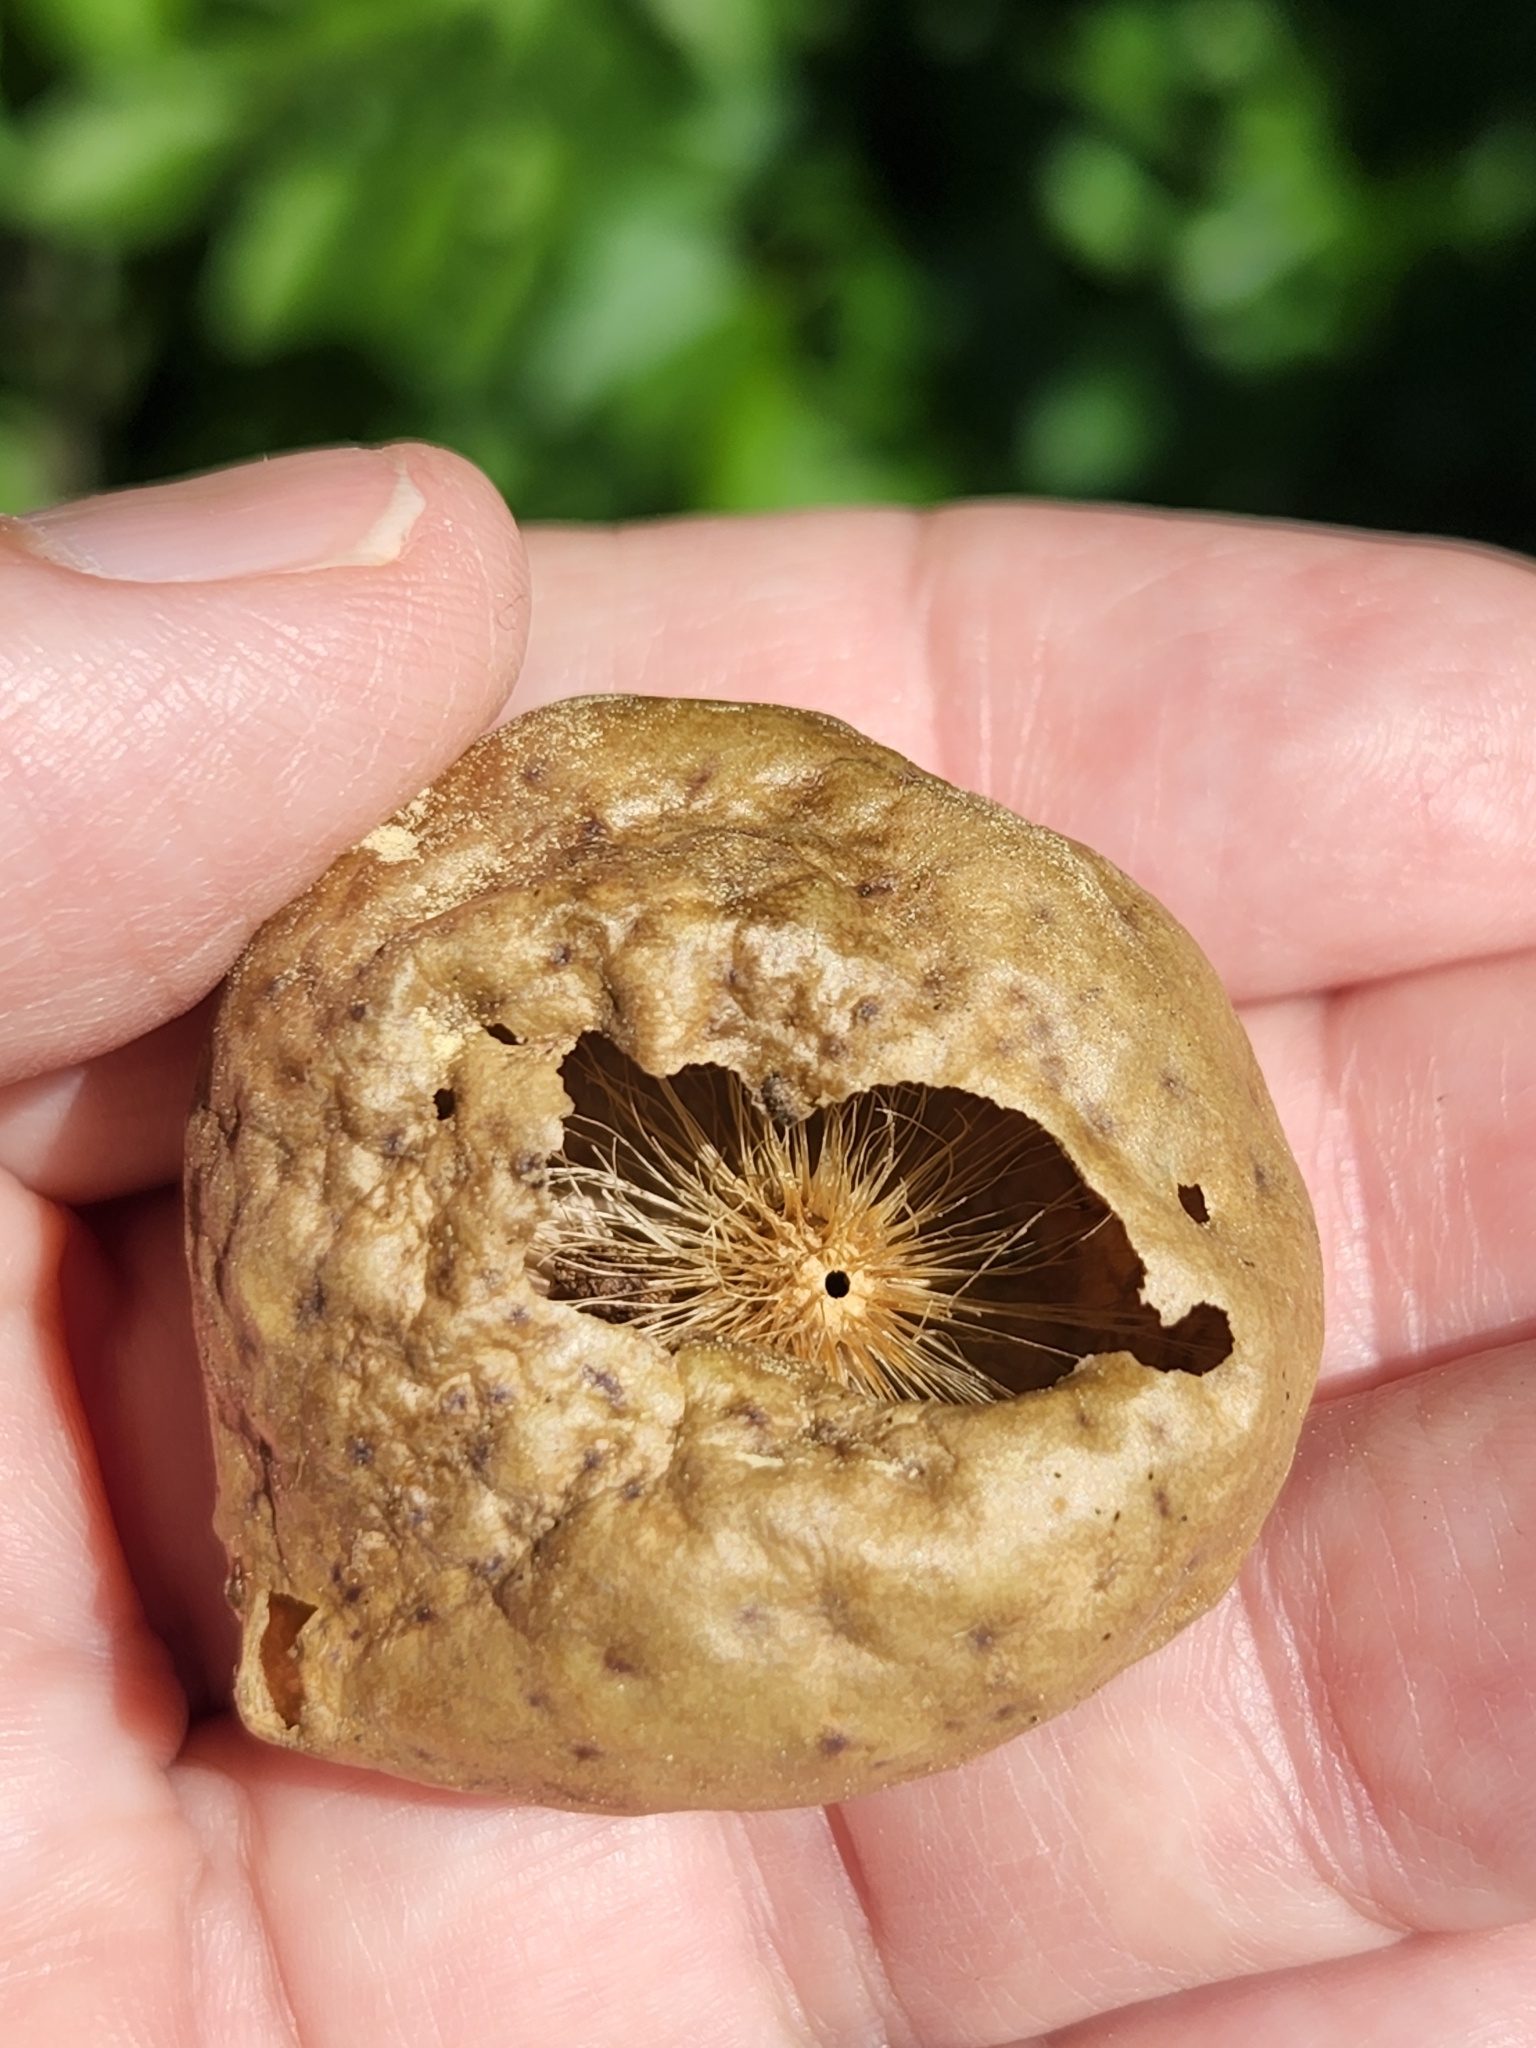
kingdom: Animalia
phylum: Arthropoda
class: Insecta
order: Hymenoptera
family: Cynipidae
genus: Amphibolips
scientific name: Amphibolips
